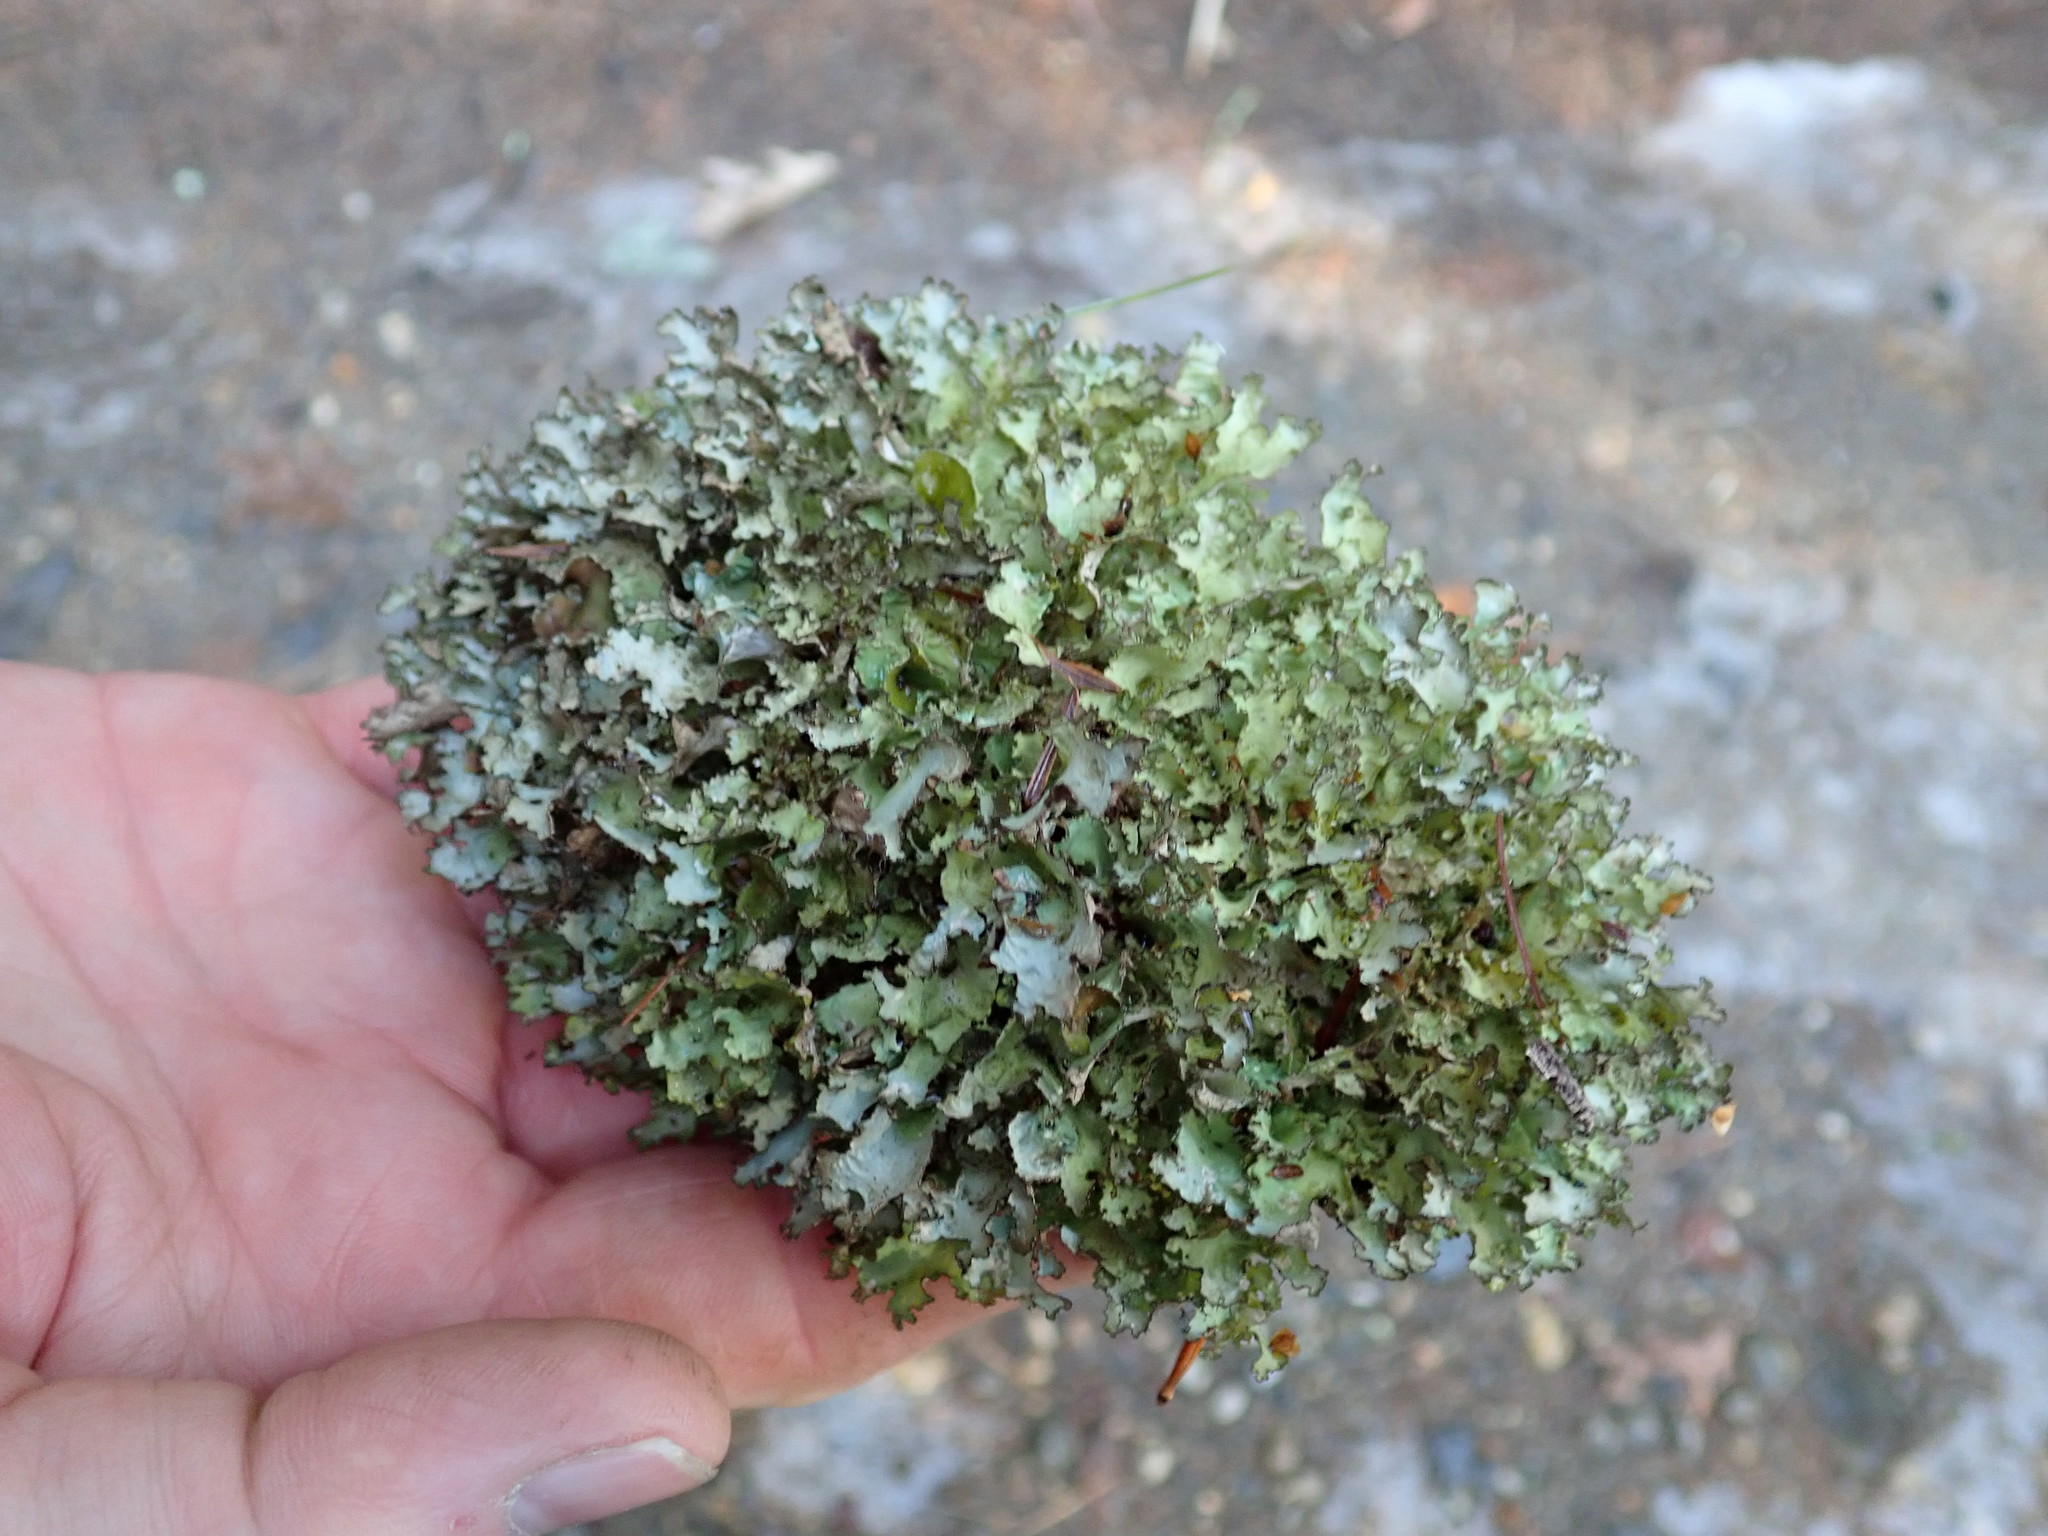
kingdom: Fungi
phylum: Ascomycota
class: Lecanoromycetes
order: Lecanorales
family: Parmeliaceae
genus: Platismatia
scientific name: Platismatia tuckermanii
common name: Crumpled rag lichen
